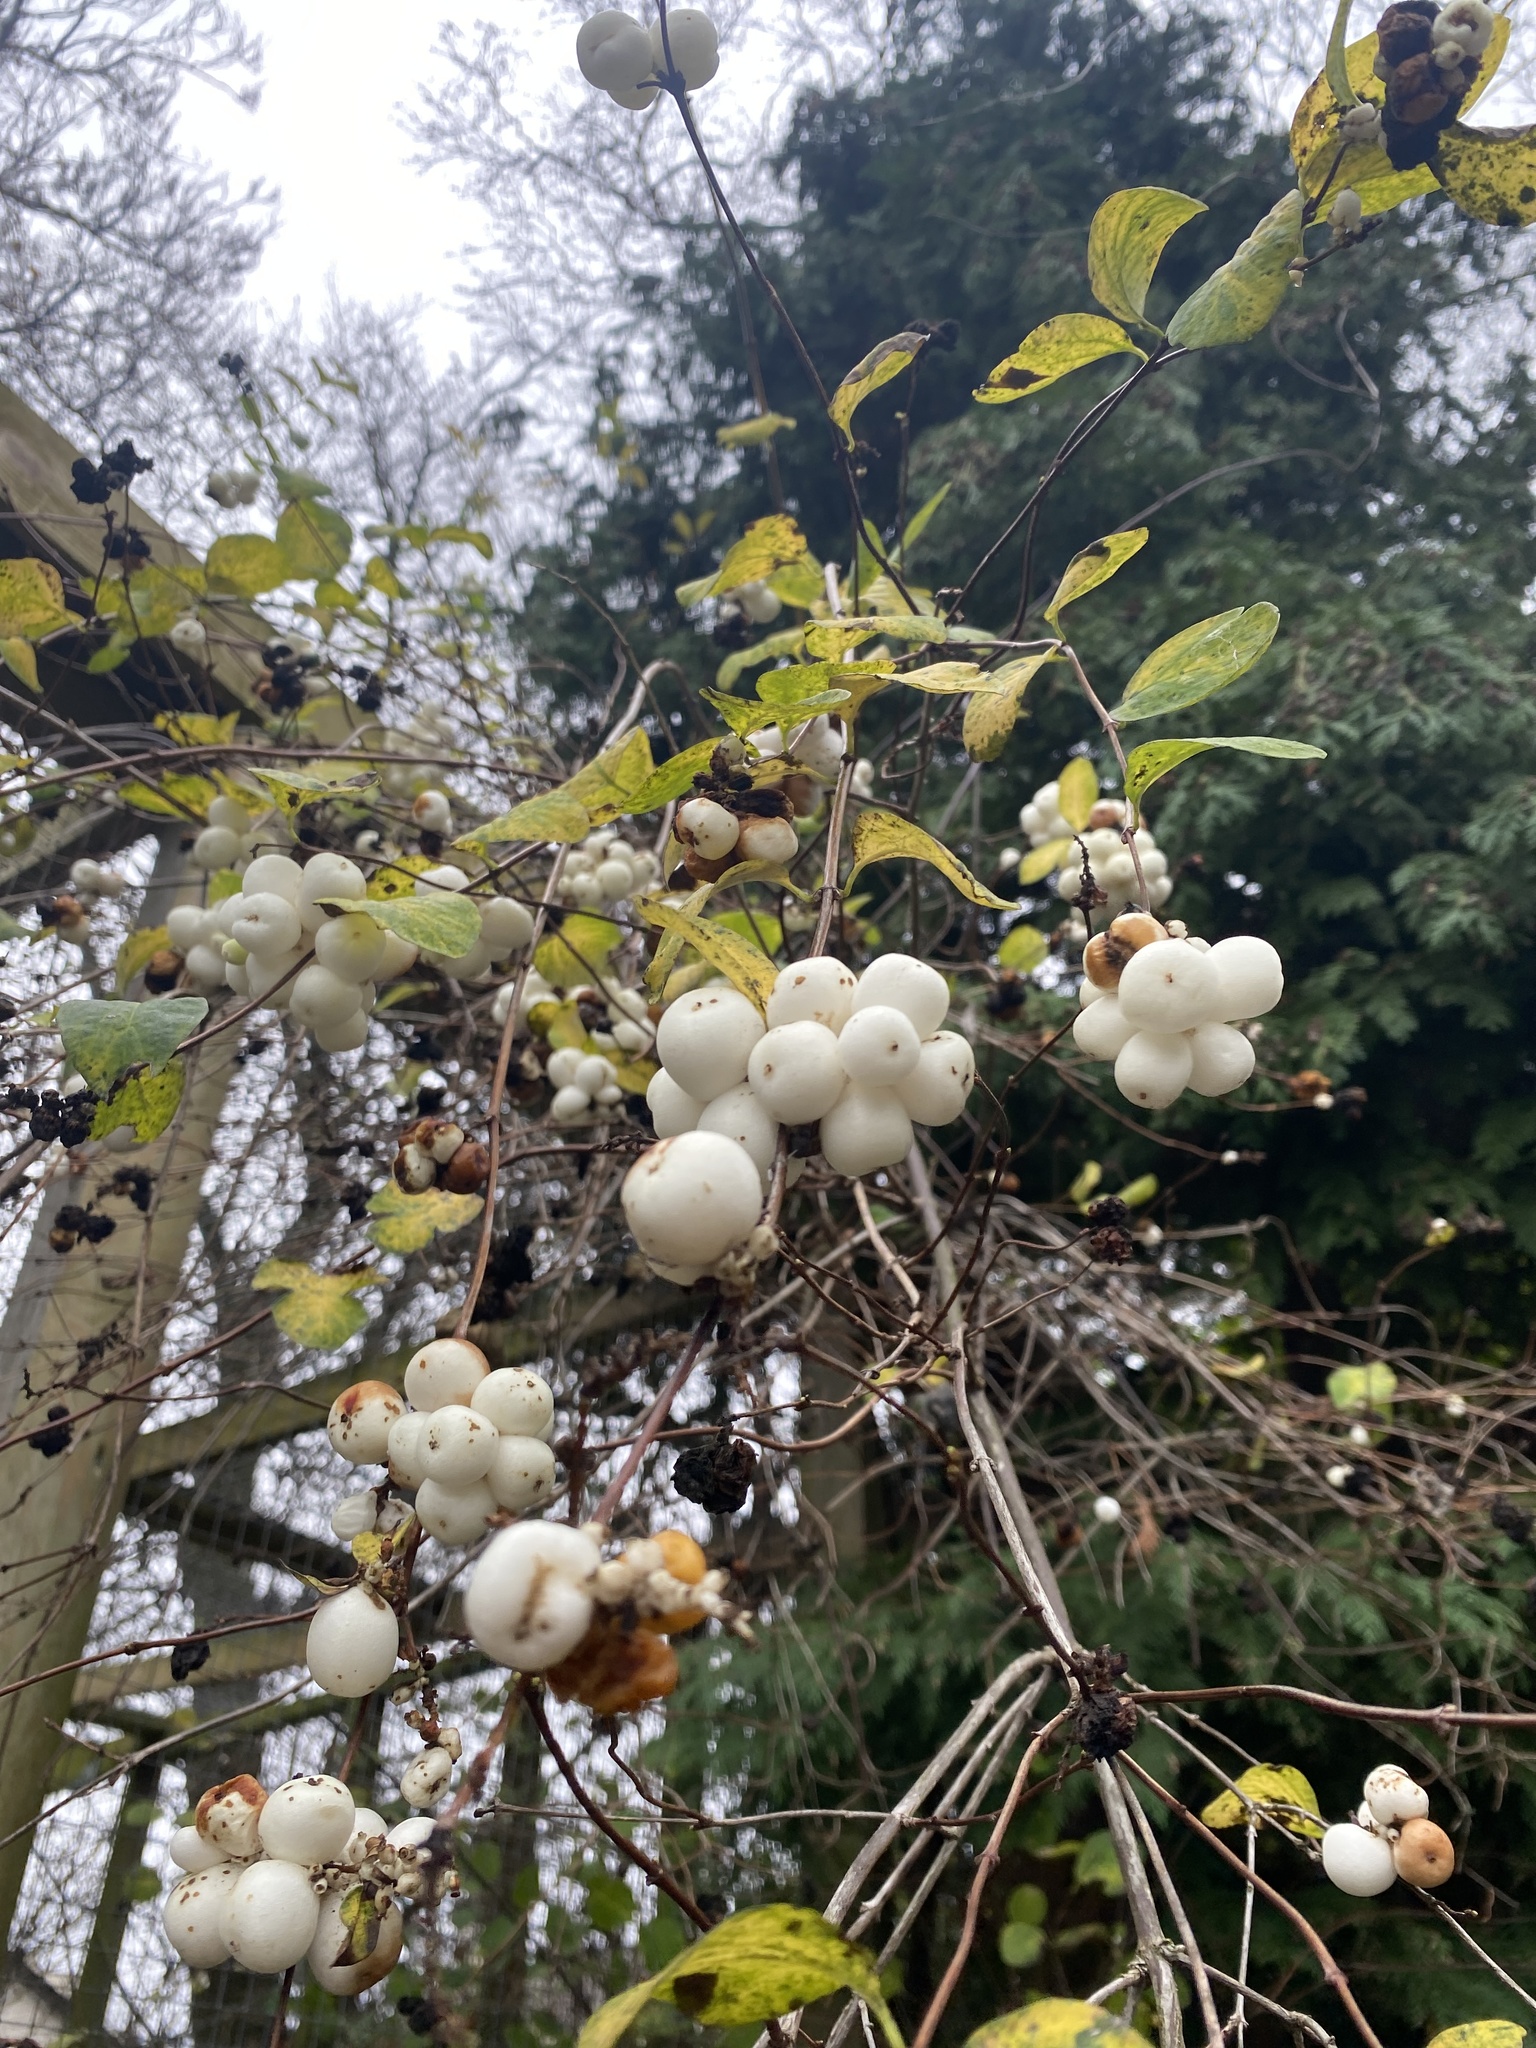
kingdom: Plantae
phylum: Tracheophyta
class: Magnoliopsida
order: Dipsacales
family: Caprifoliaceae
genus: Symphoricarpos
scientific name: Symphoricarpos albus
